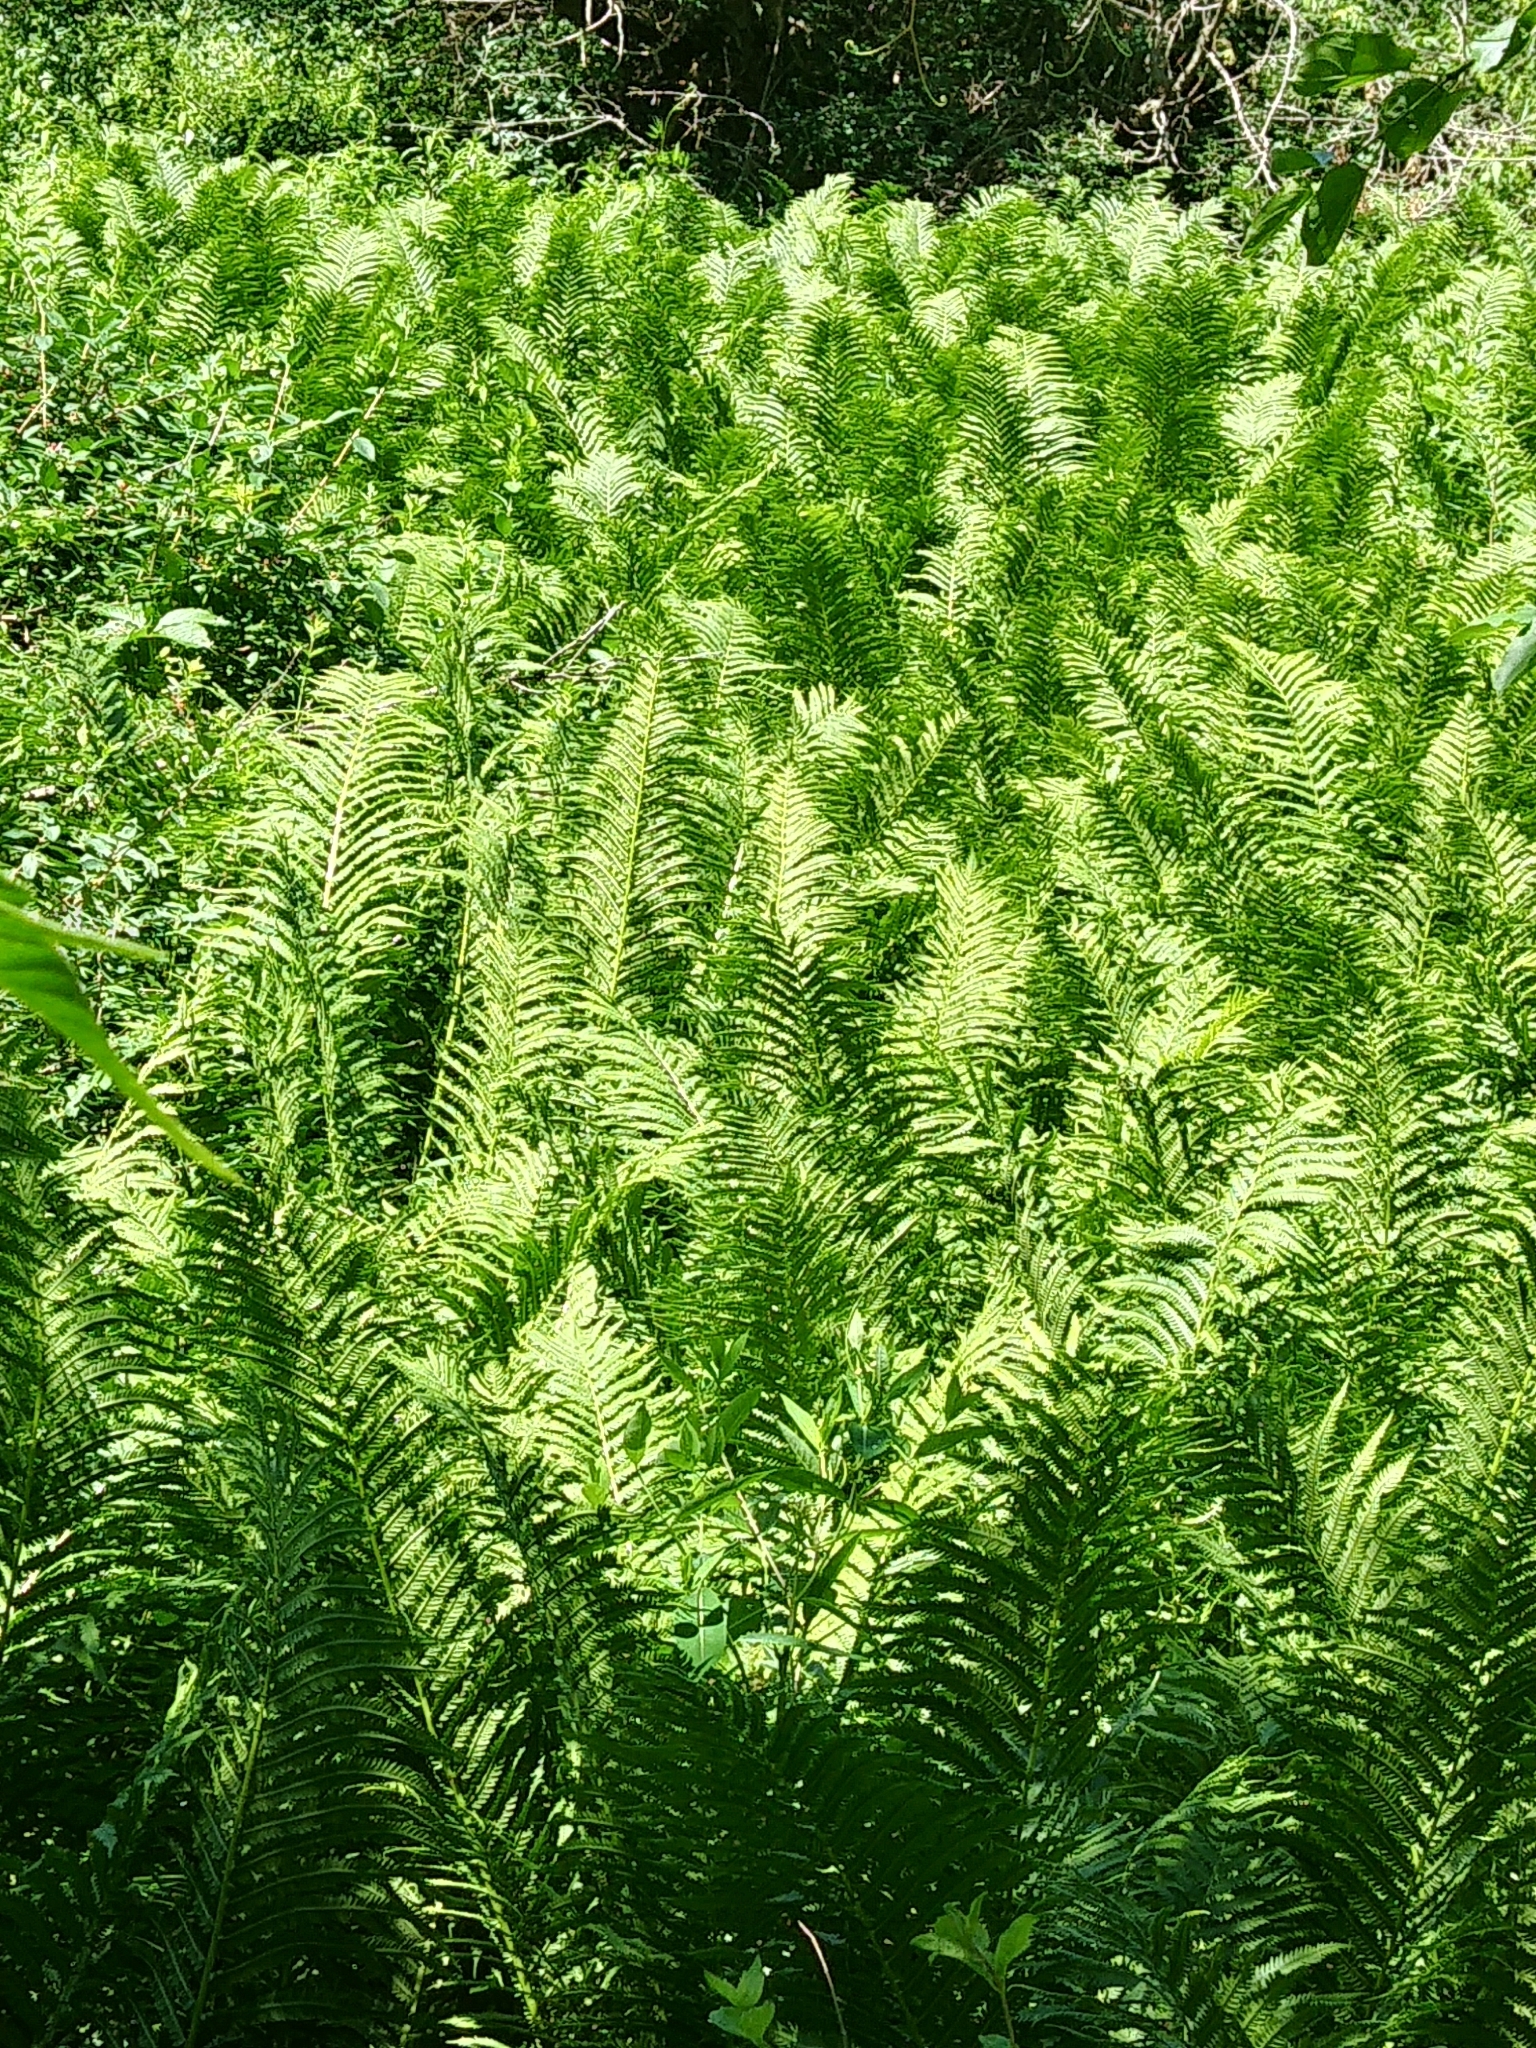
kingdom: Plantae
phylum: Tracheophyta
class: Polypodiopsida
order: Polypodiales
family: Onocleaceae
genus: Matteuccia
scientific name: Matteuccia struthiopteris
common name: Ostrich fern
